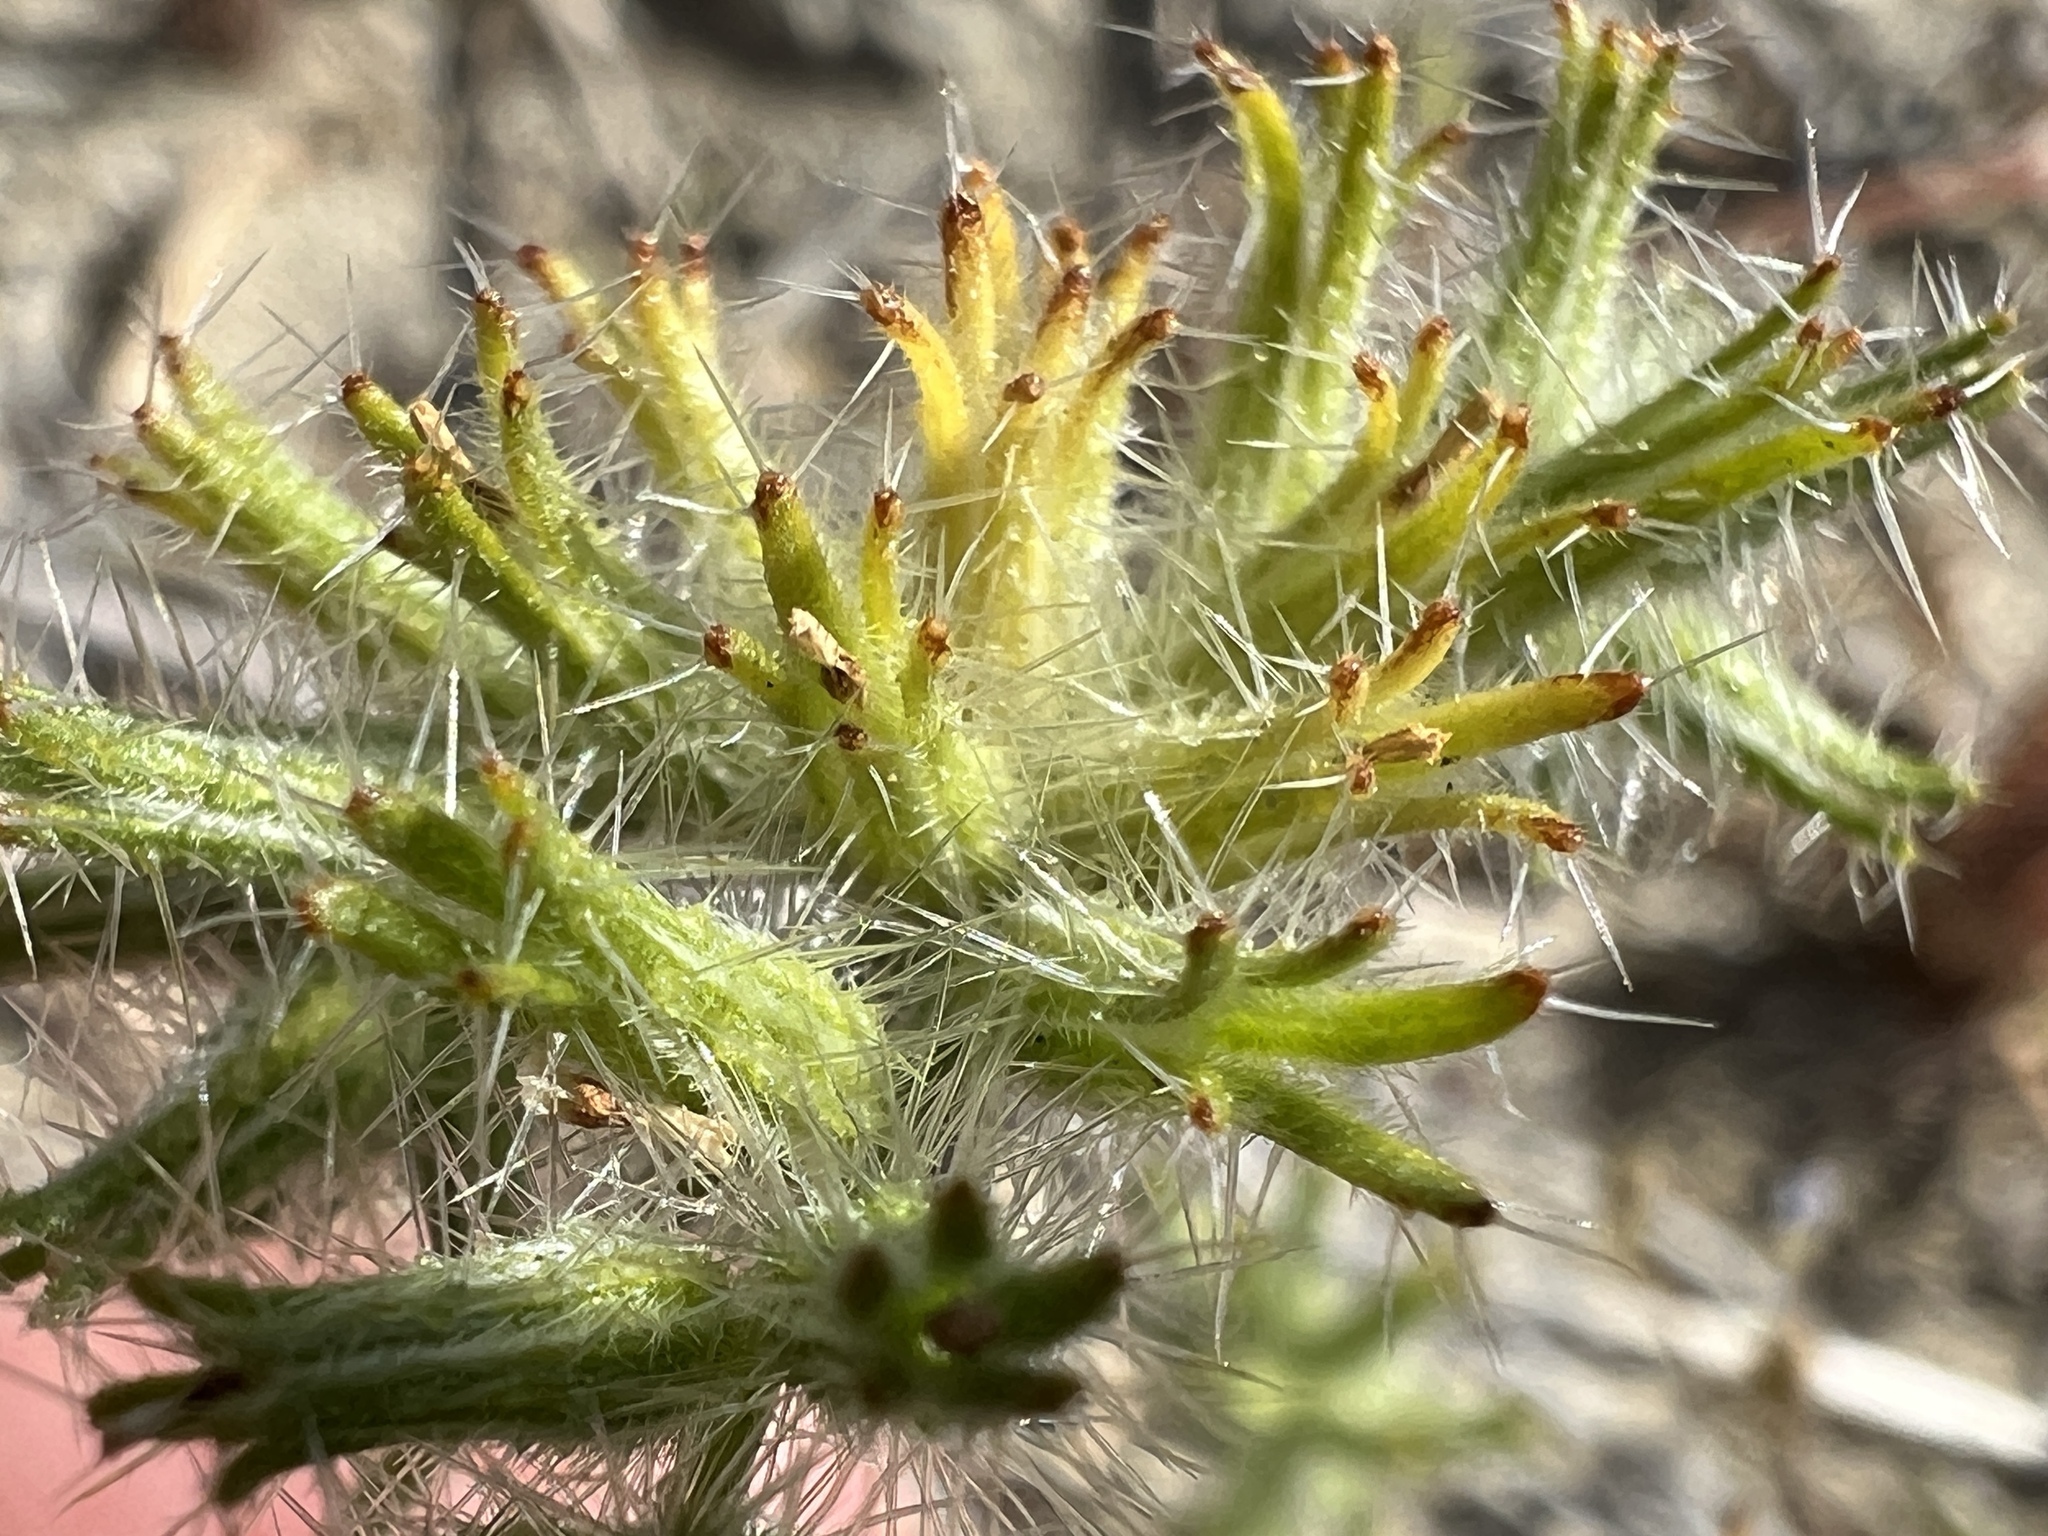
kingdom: Plantae
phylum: Tracheophyta
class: Magnoliopsida
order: Boraginales
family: Boraginaceae
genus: Cryptantha
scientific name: Cryptantha nevadensis
